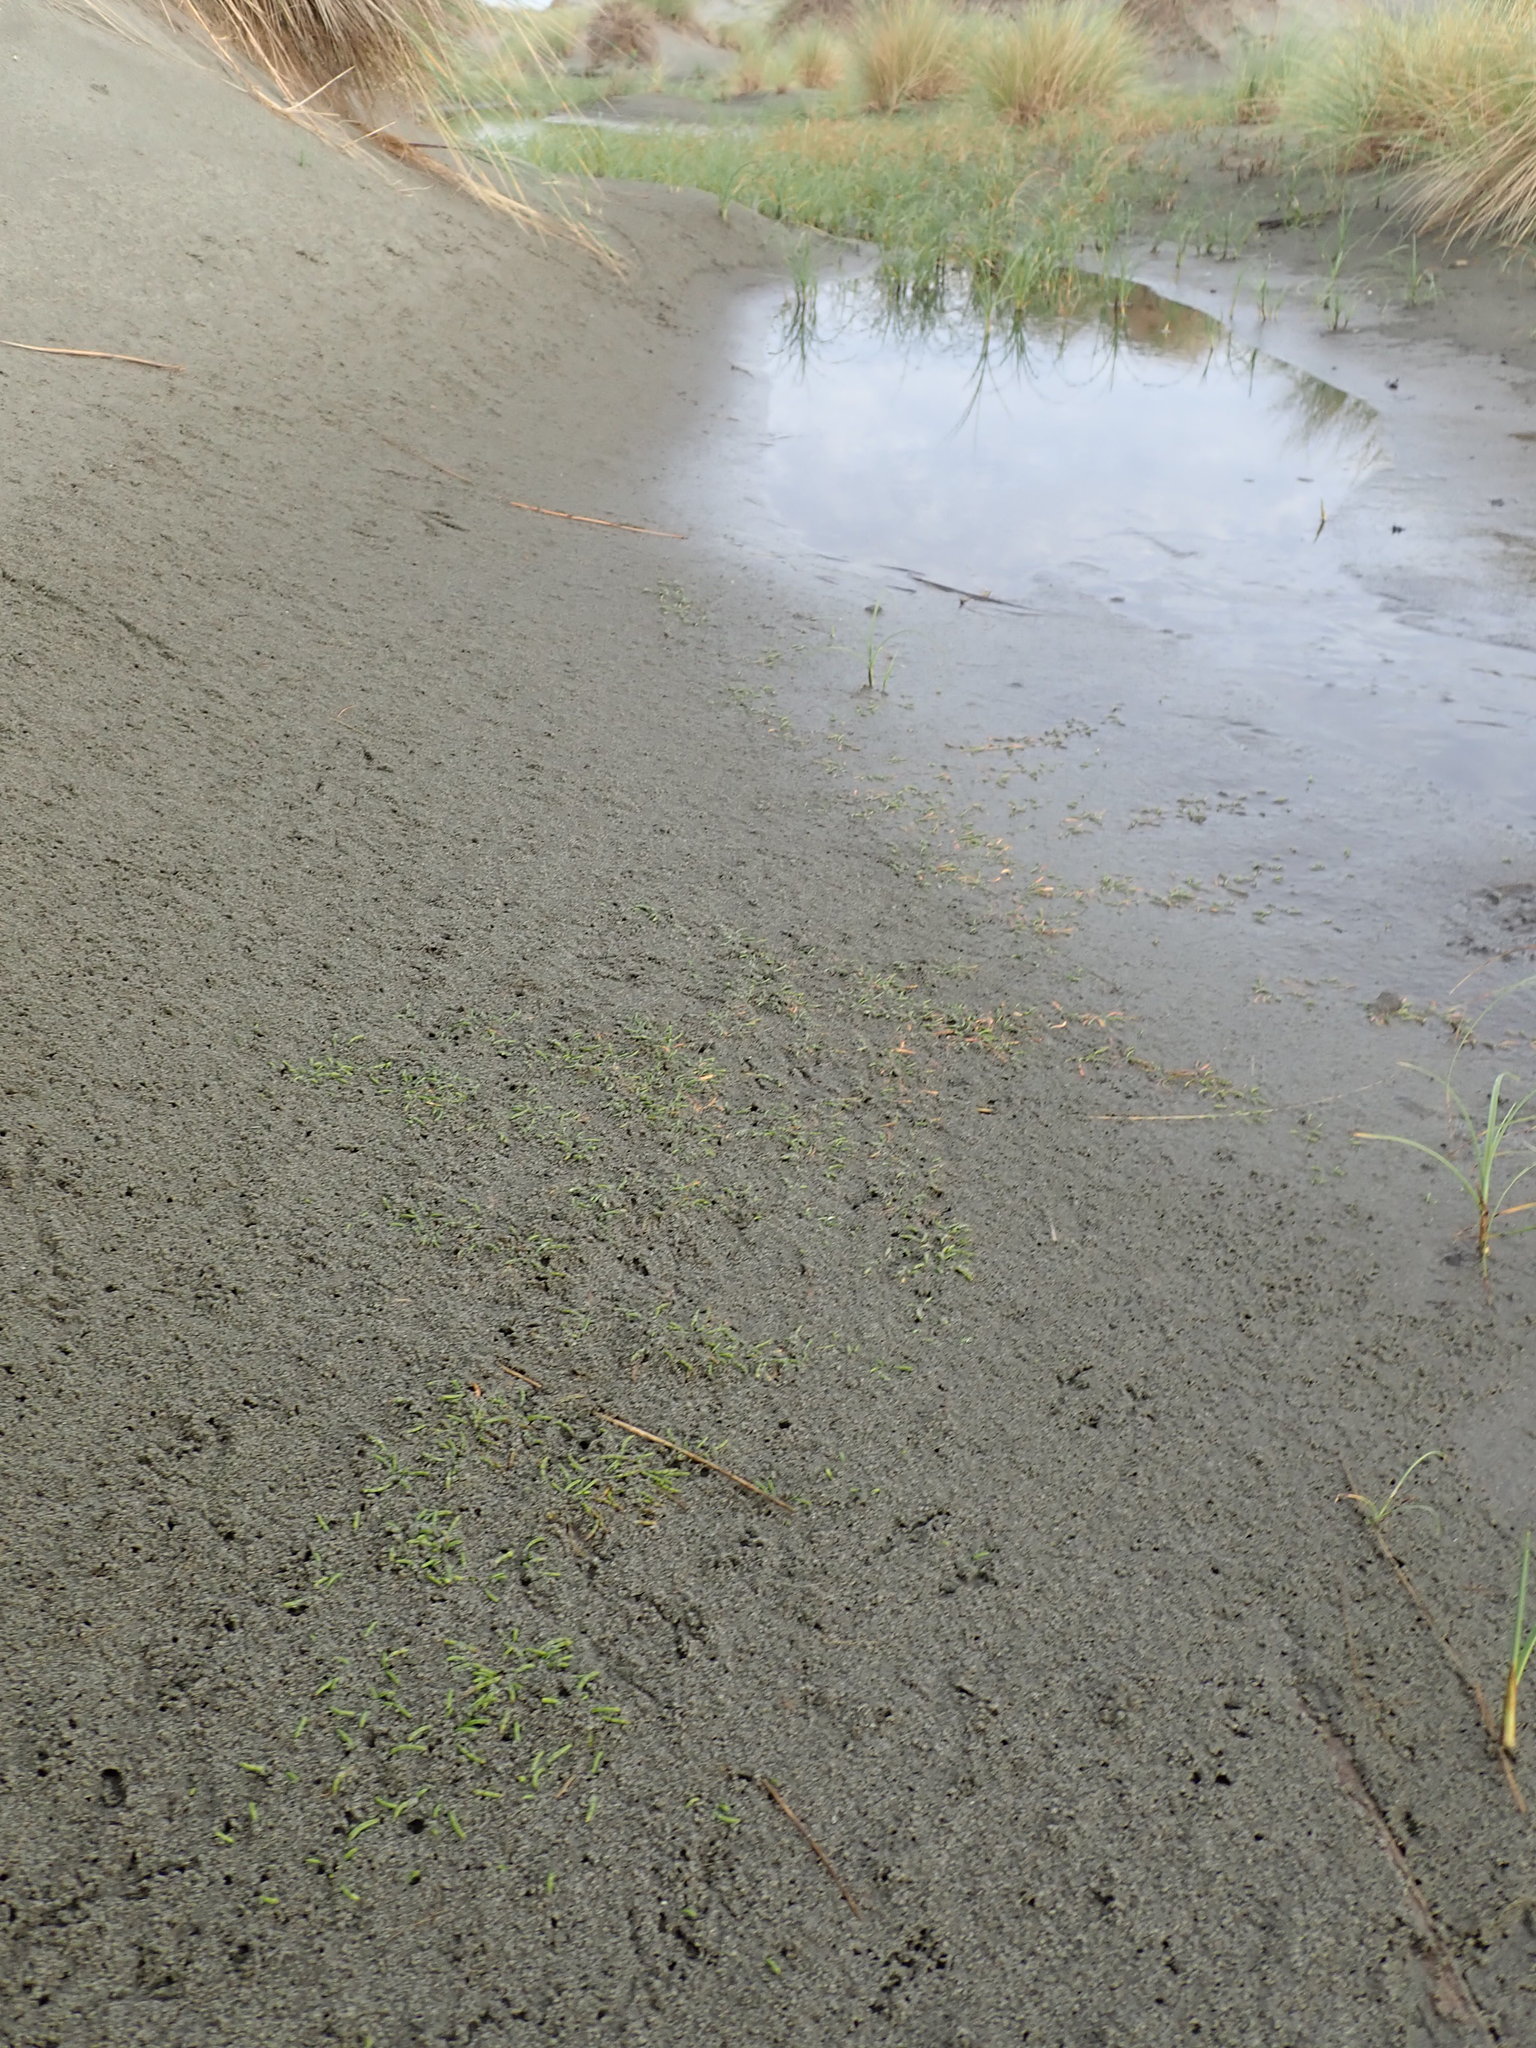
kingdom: Plantae
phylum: Tracheophyta
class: Magnoliopsida
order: Apiales
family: Apiaceae
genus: Lilaeopsis
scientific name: Lilaeopsis novae-zelandiae
